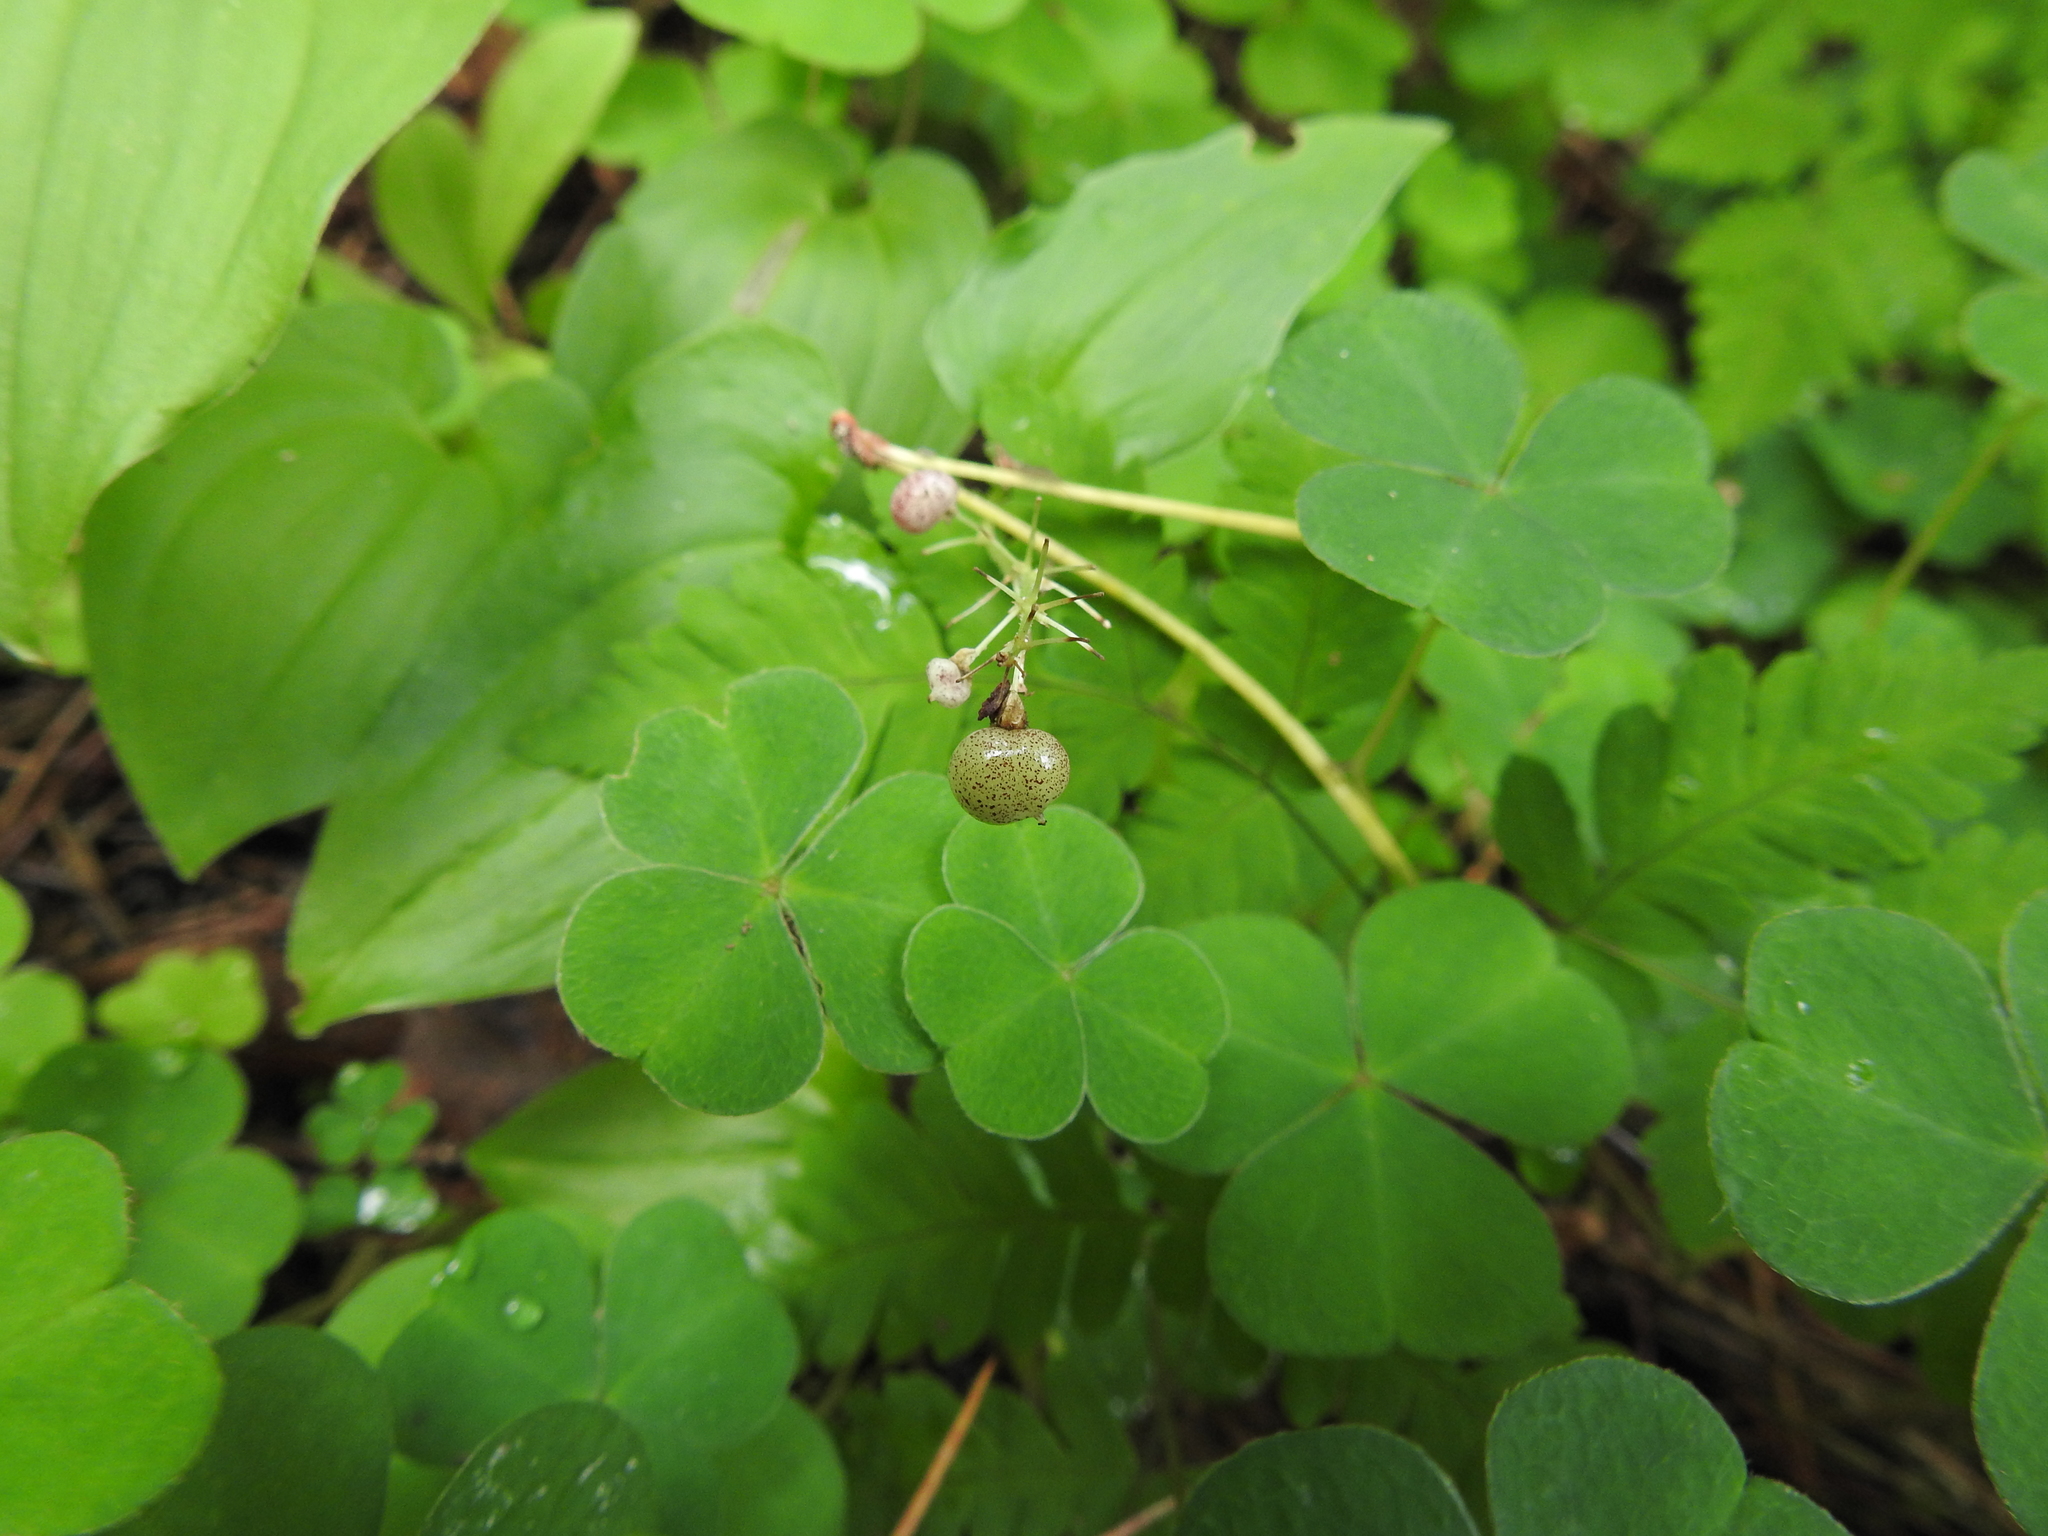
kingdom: Plantae
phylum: Tracheophyta
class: Liliopsida
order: Asparagales
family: Asparagaceae
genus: Maianthemum
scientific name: Maianthemum bifolium
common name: May lily
